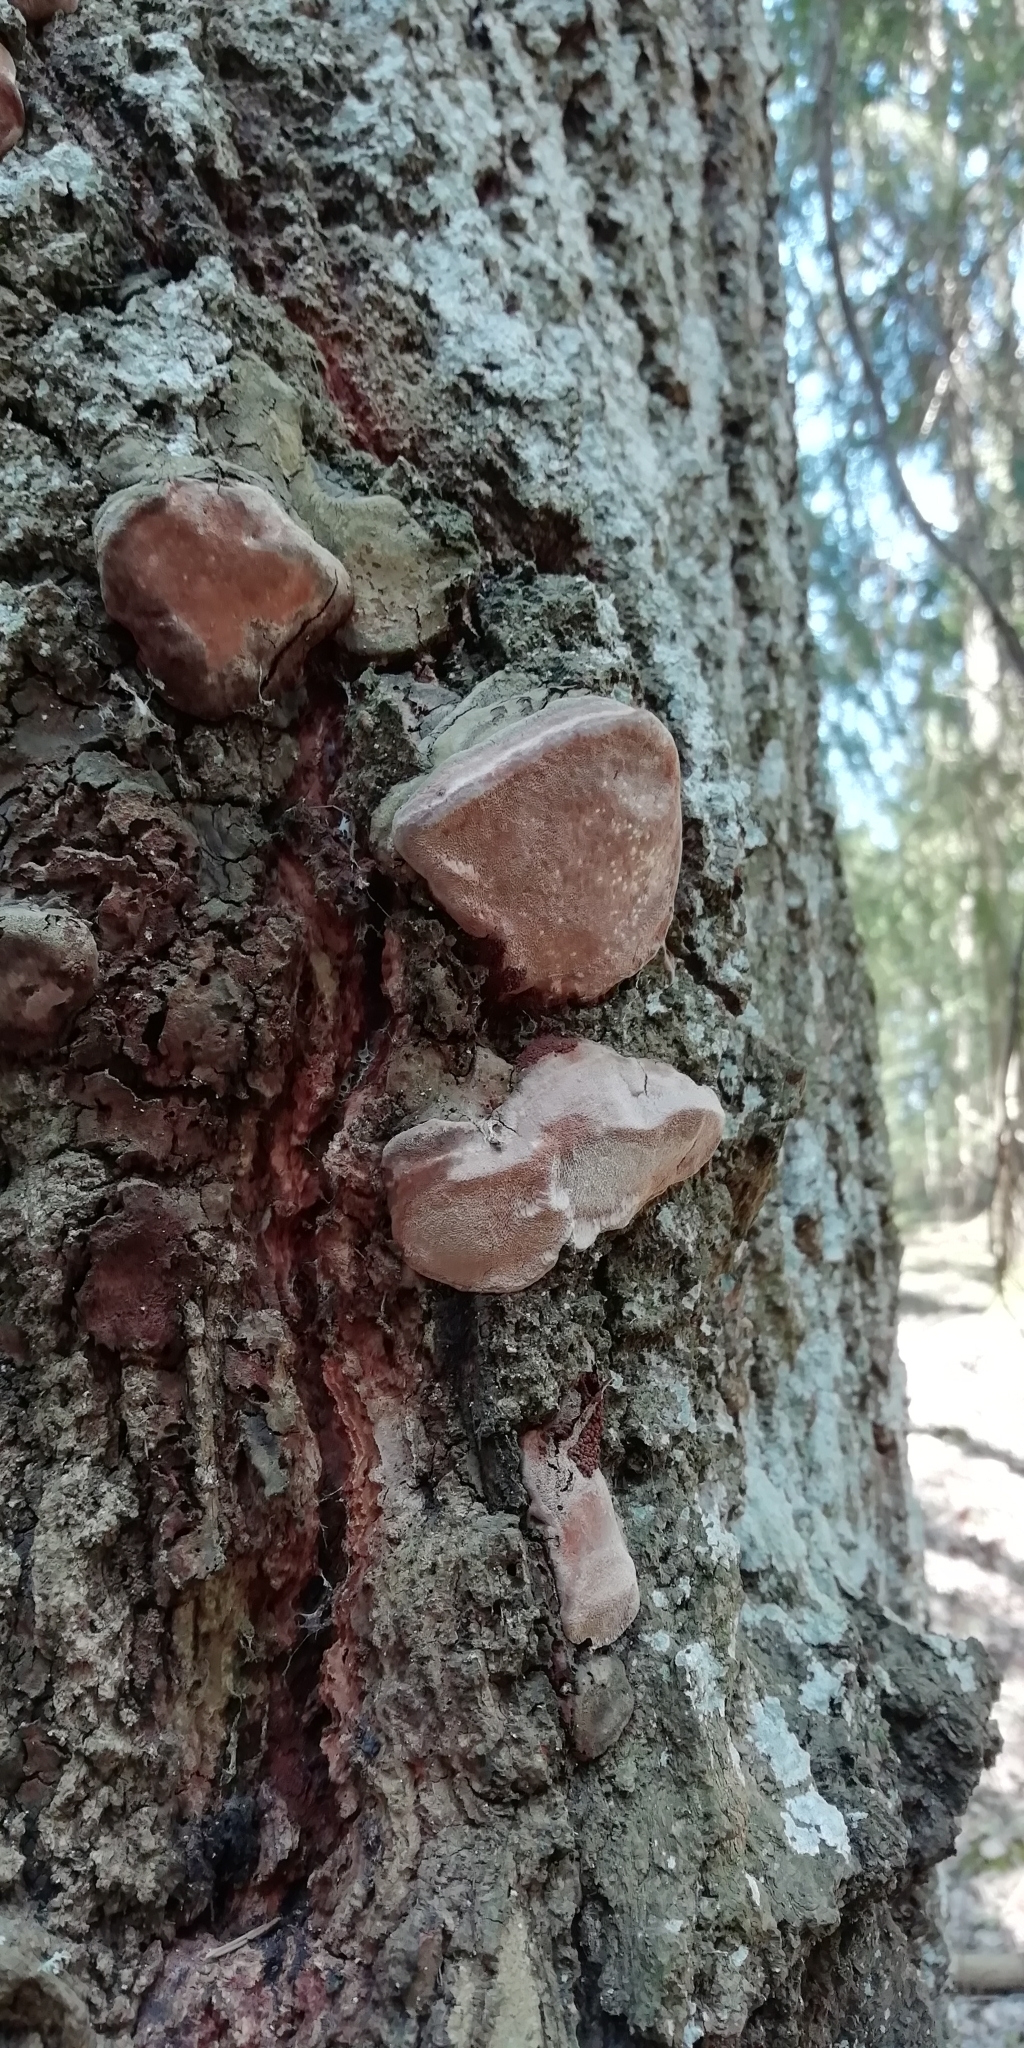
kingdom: Fungi
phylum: Basidiomycota
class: Agaricomycetes
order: Hymenochaetales
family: Hymenochaetaceae
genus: Phellinus
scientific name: Phellinus tremulae
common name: Aspen bracket
